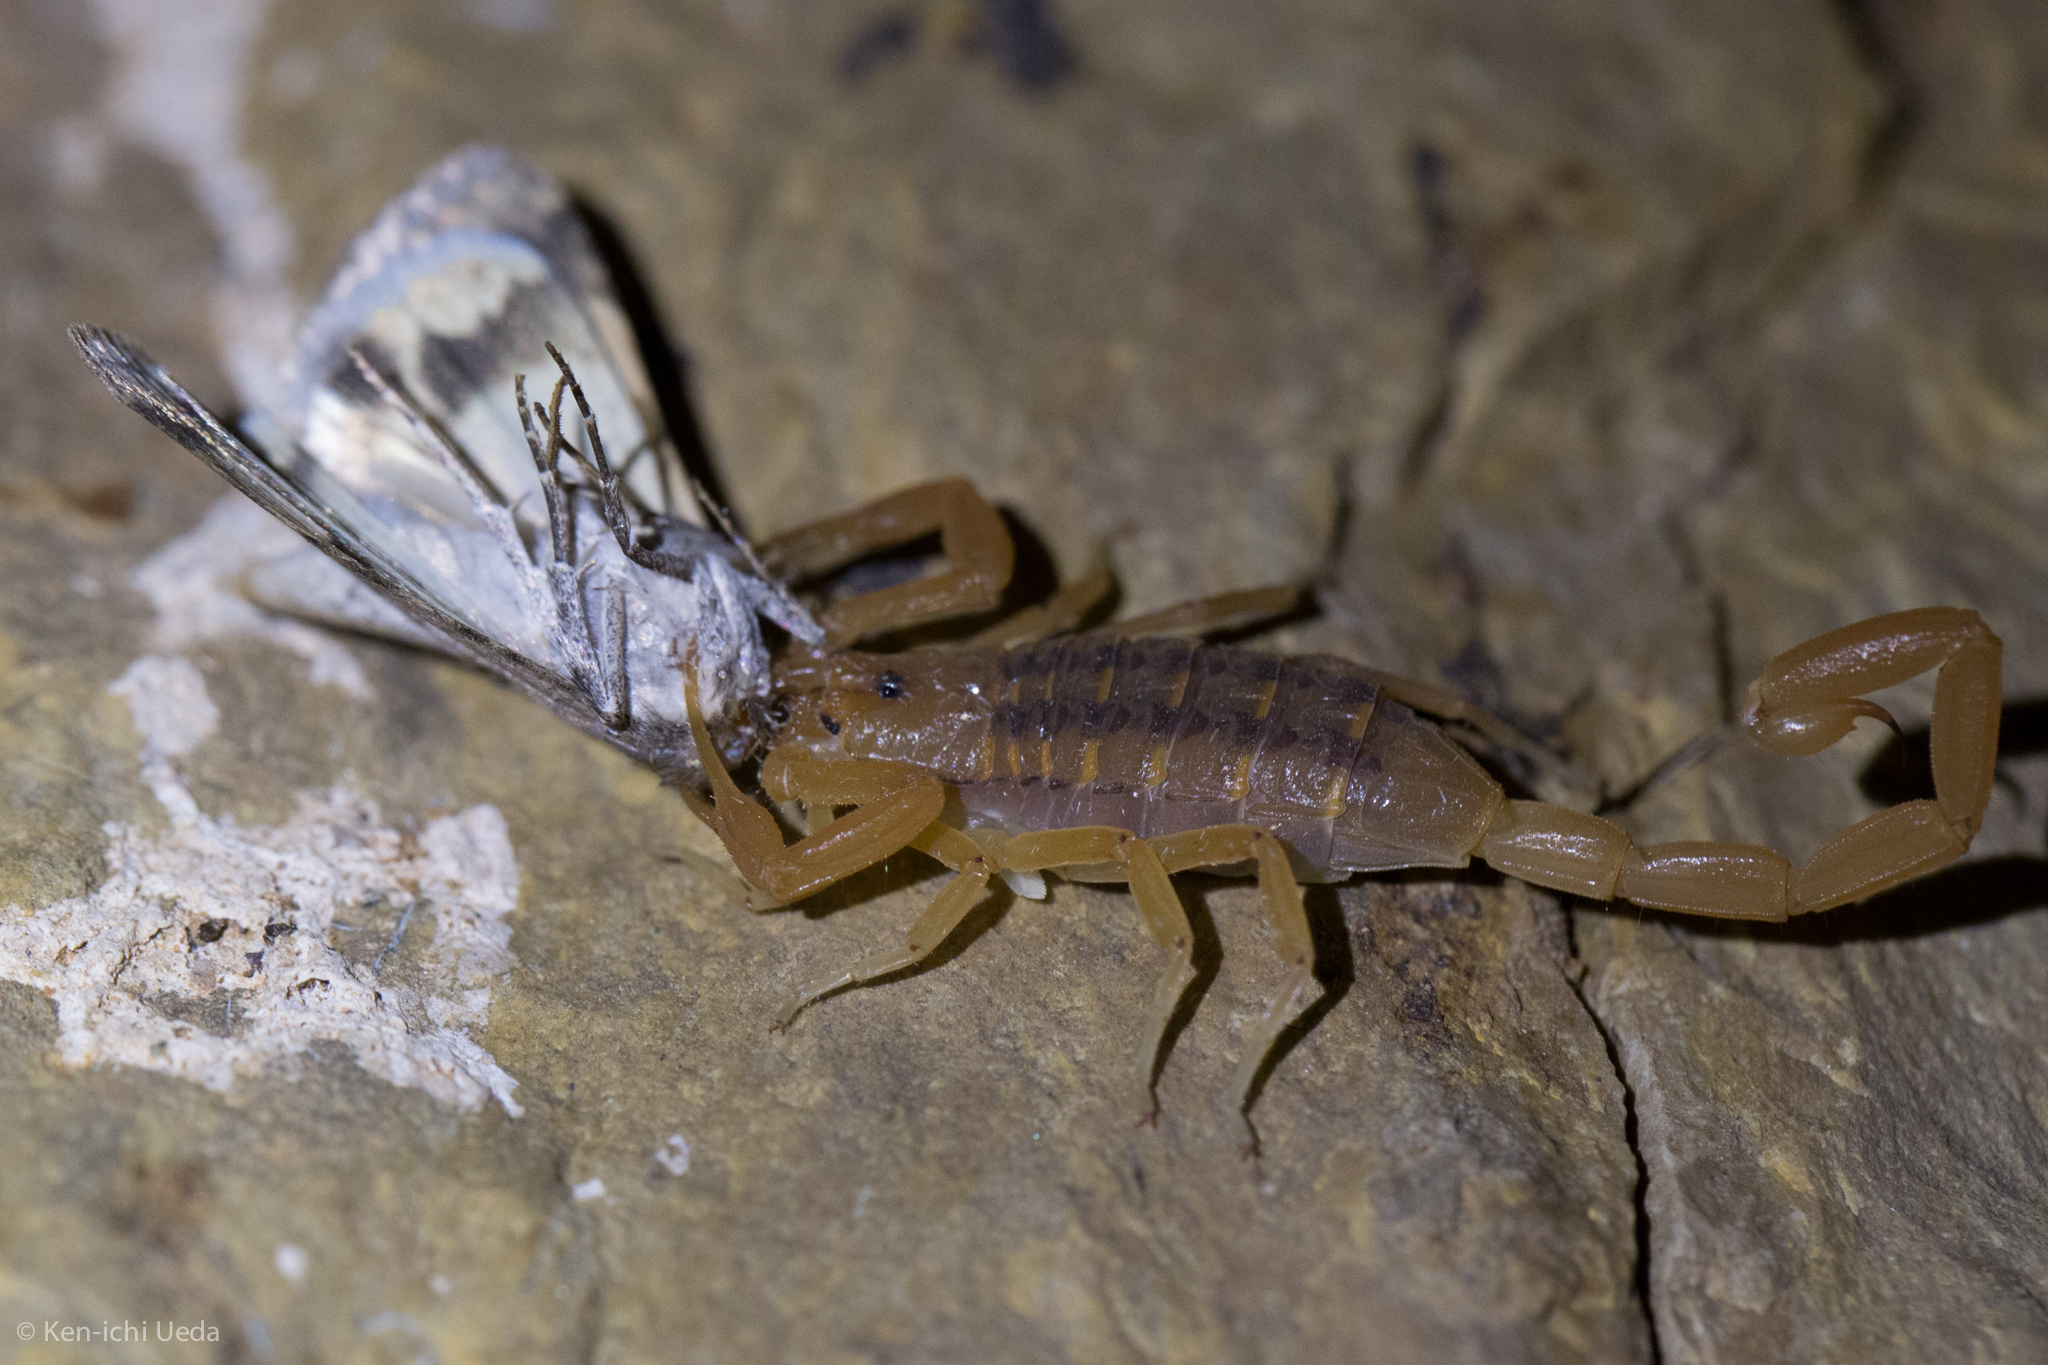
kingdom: Animalia
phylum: Arthropoda
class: Arachnida
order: Scorpiones
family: Buthidae
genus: Centruroides
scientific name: Centruroides sculpturatus
